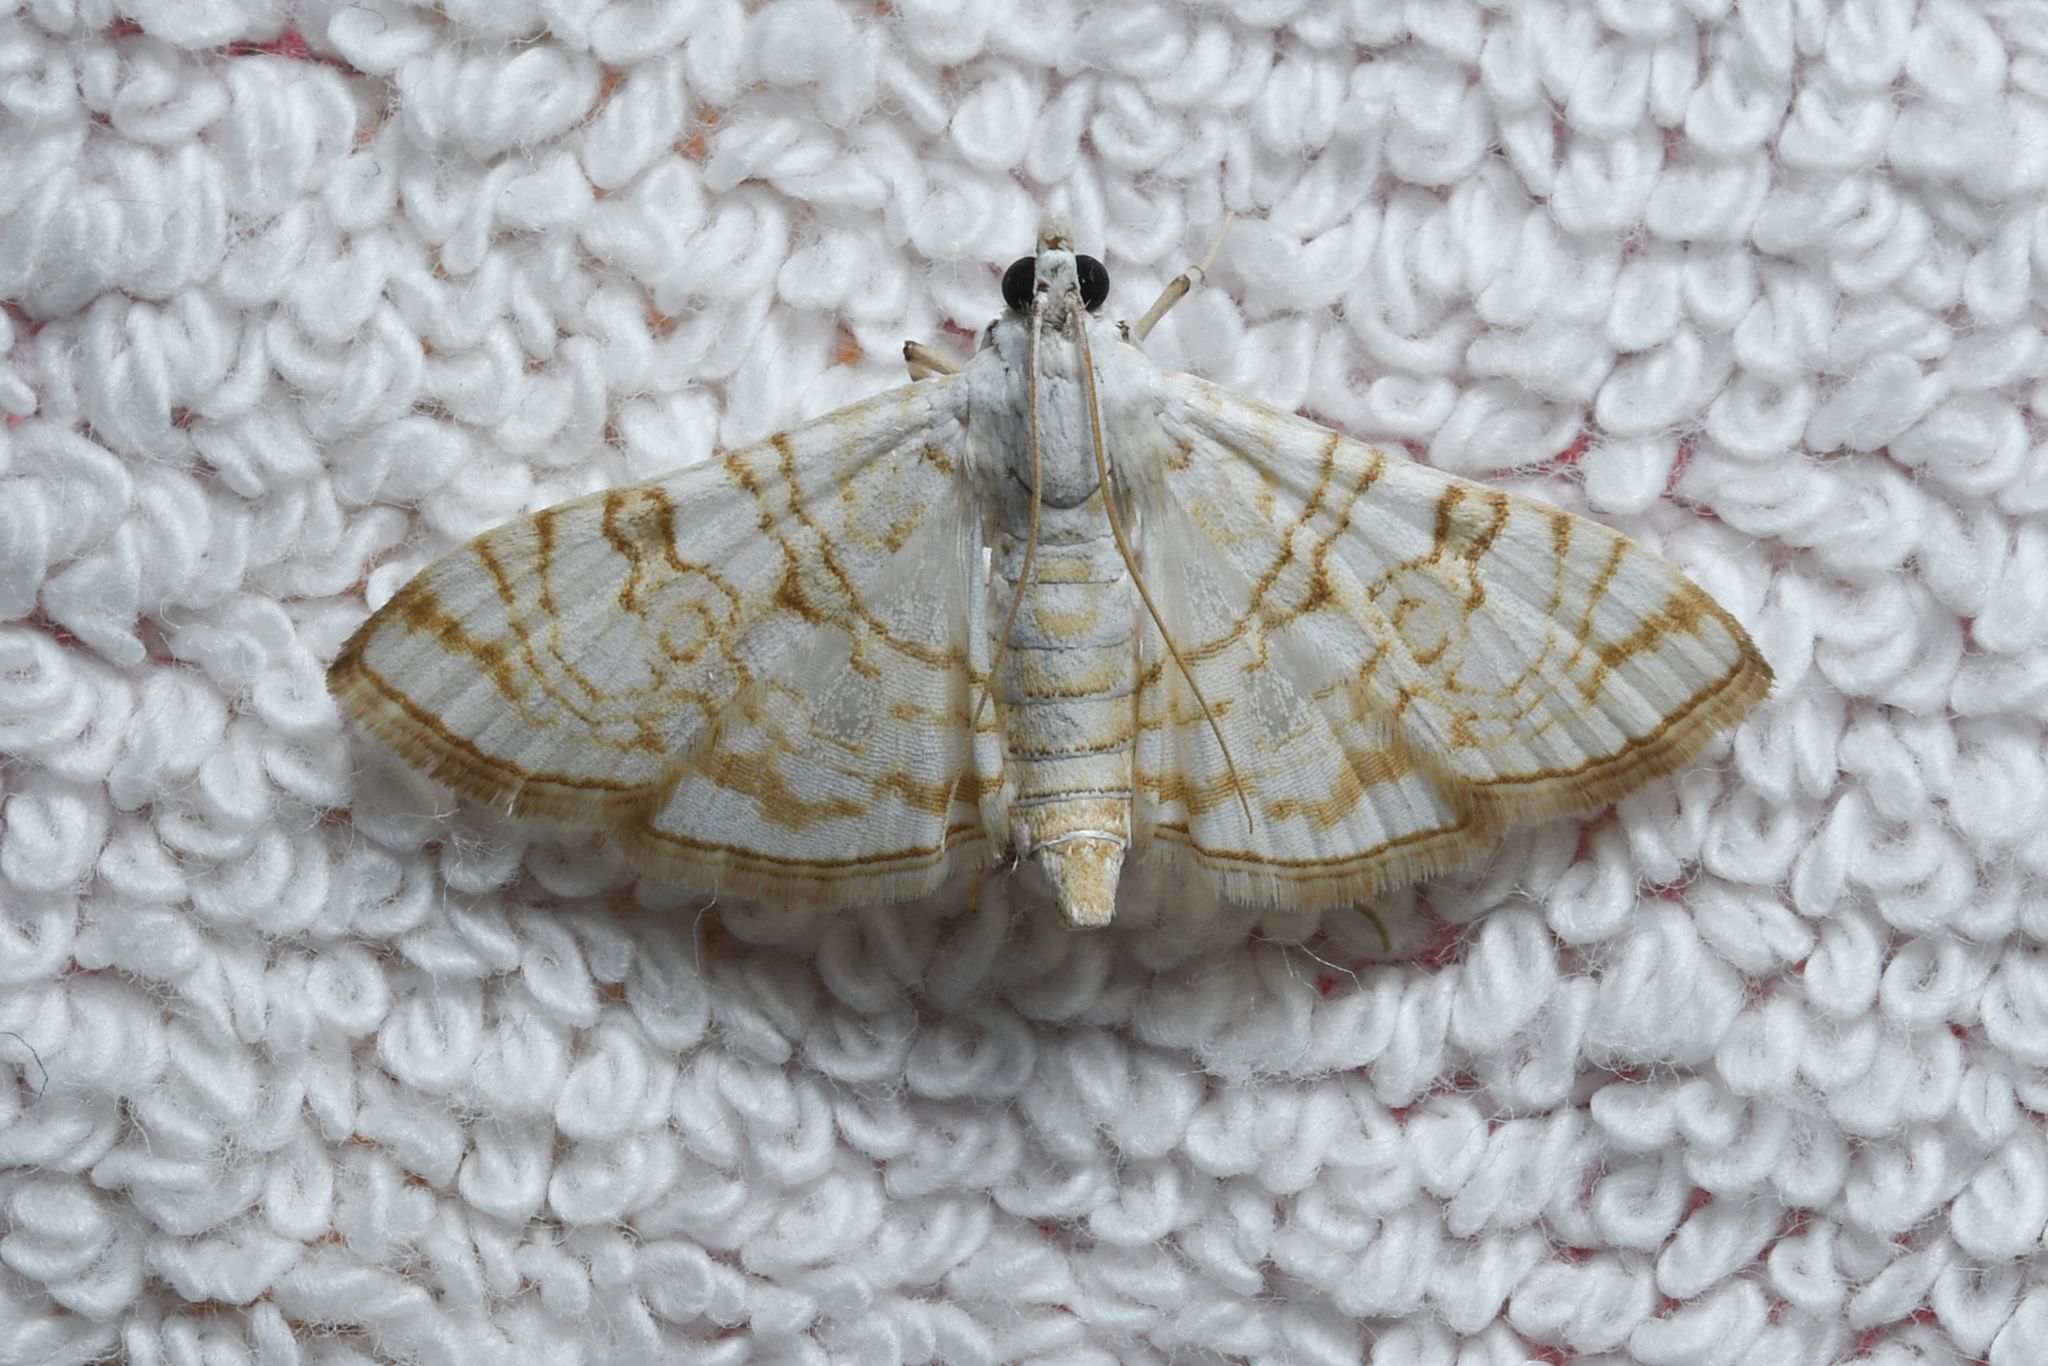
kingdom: Animalia
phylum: Arthropoda
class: Insecta
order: Lepidoptera
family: Crambidae
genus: Synclera
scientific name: Synclera
